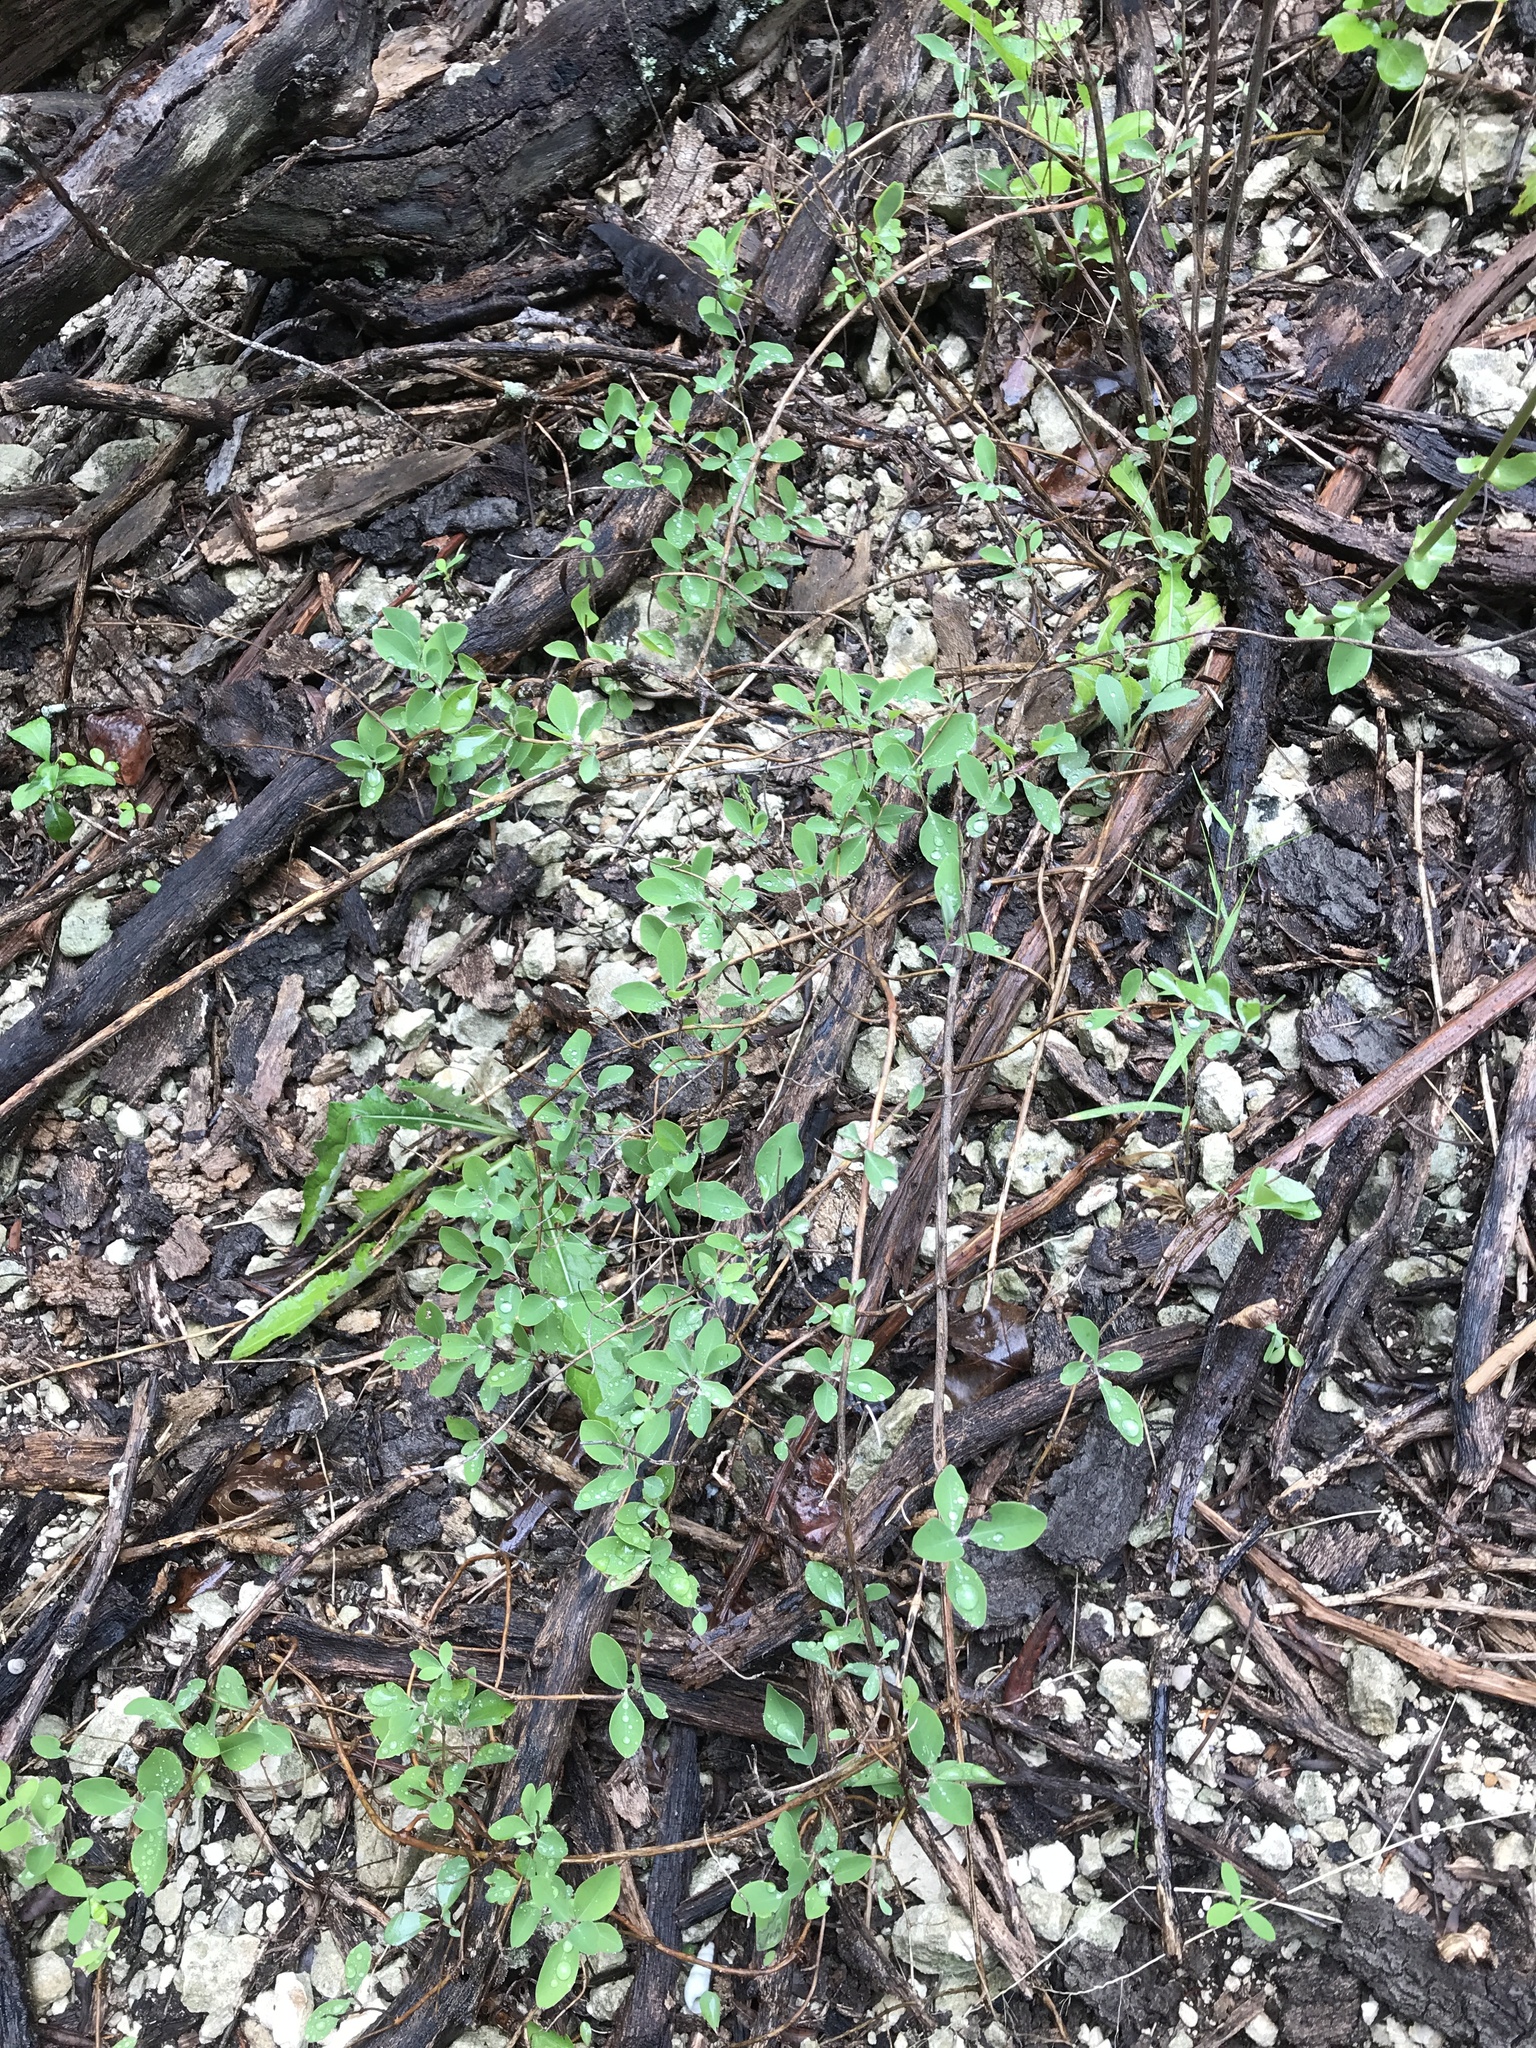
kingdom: Plantae
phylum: Tracheophyta
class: Magnoliopsida
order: Dipsacales
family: Caprifoliaceae
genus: Lonicera
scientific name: Lonicera albiflora
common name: White honeysuckle
